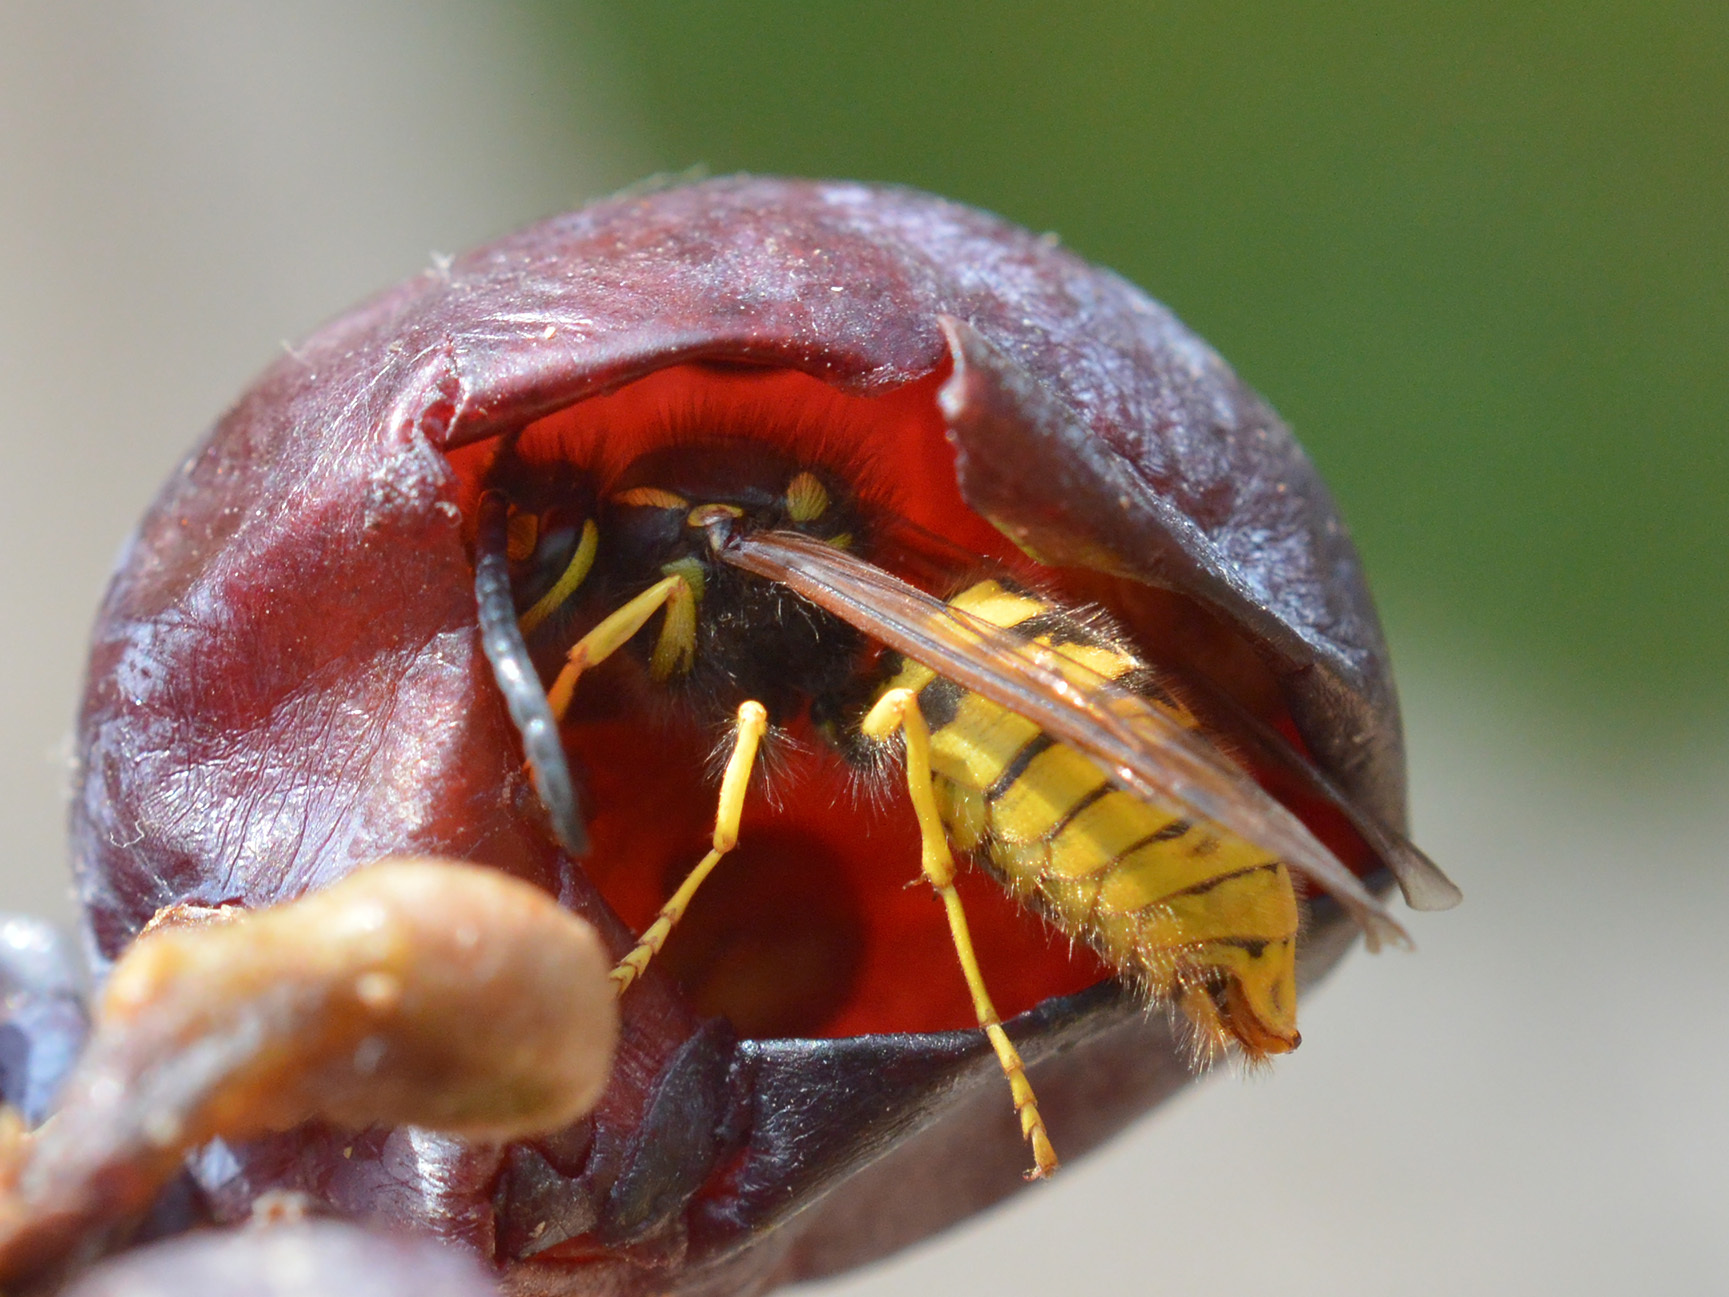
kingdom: Animalia
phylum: Arthropoda
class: Insecta
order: Hymenoptera
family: Vespidae
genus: Vespula
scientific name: Vespula germanica
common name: German wasp
